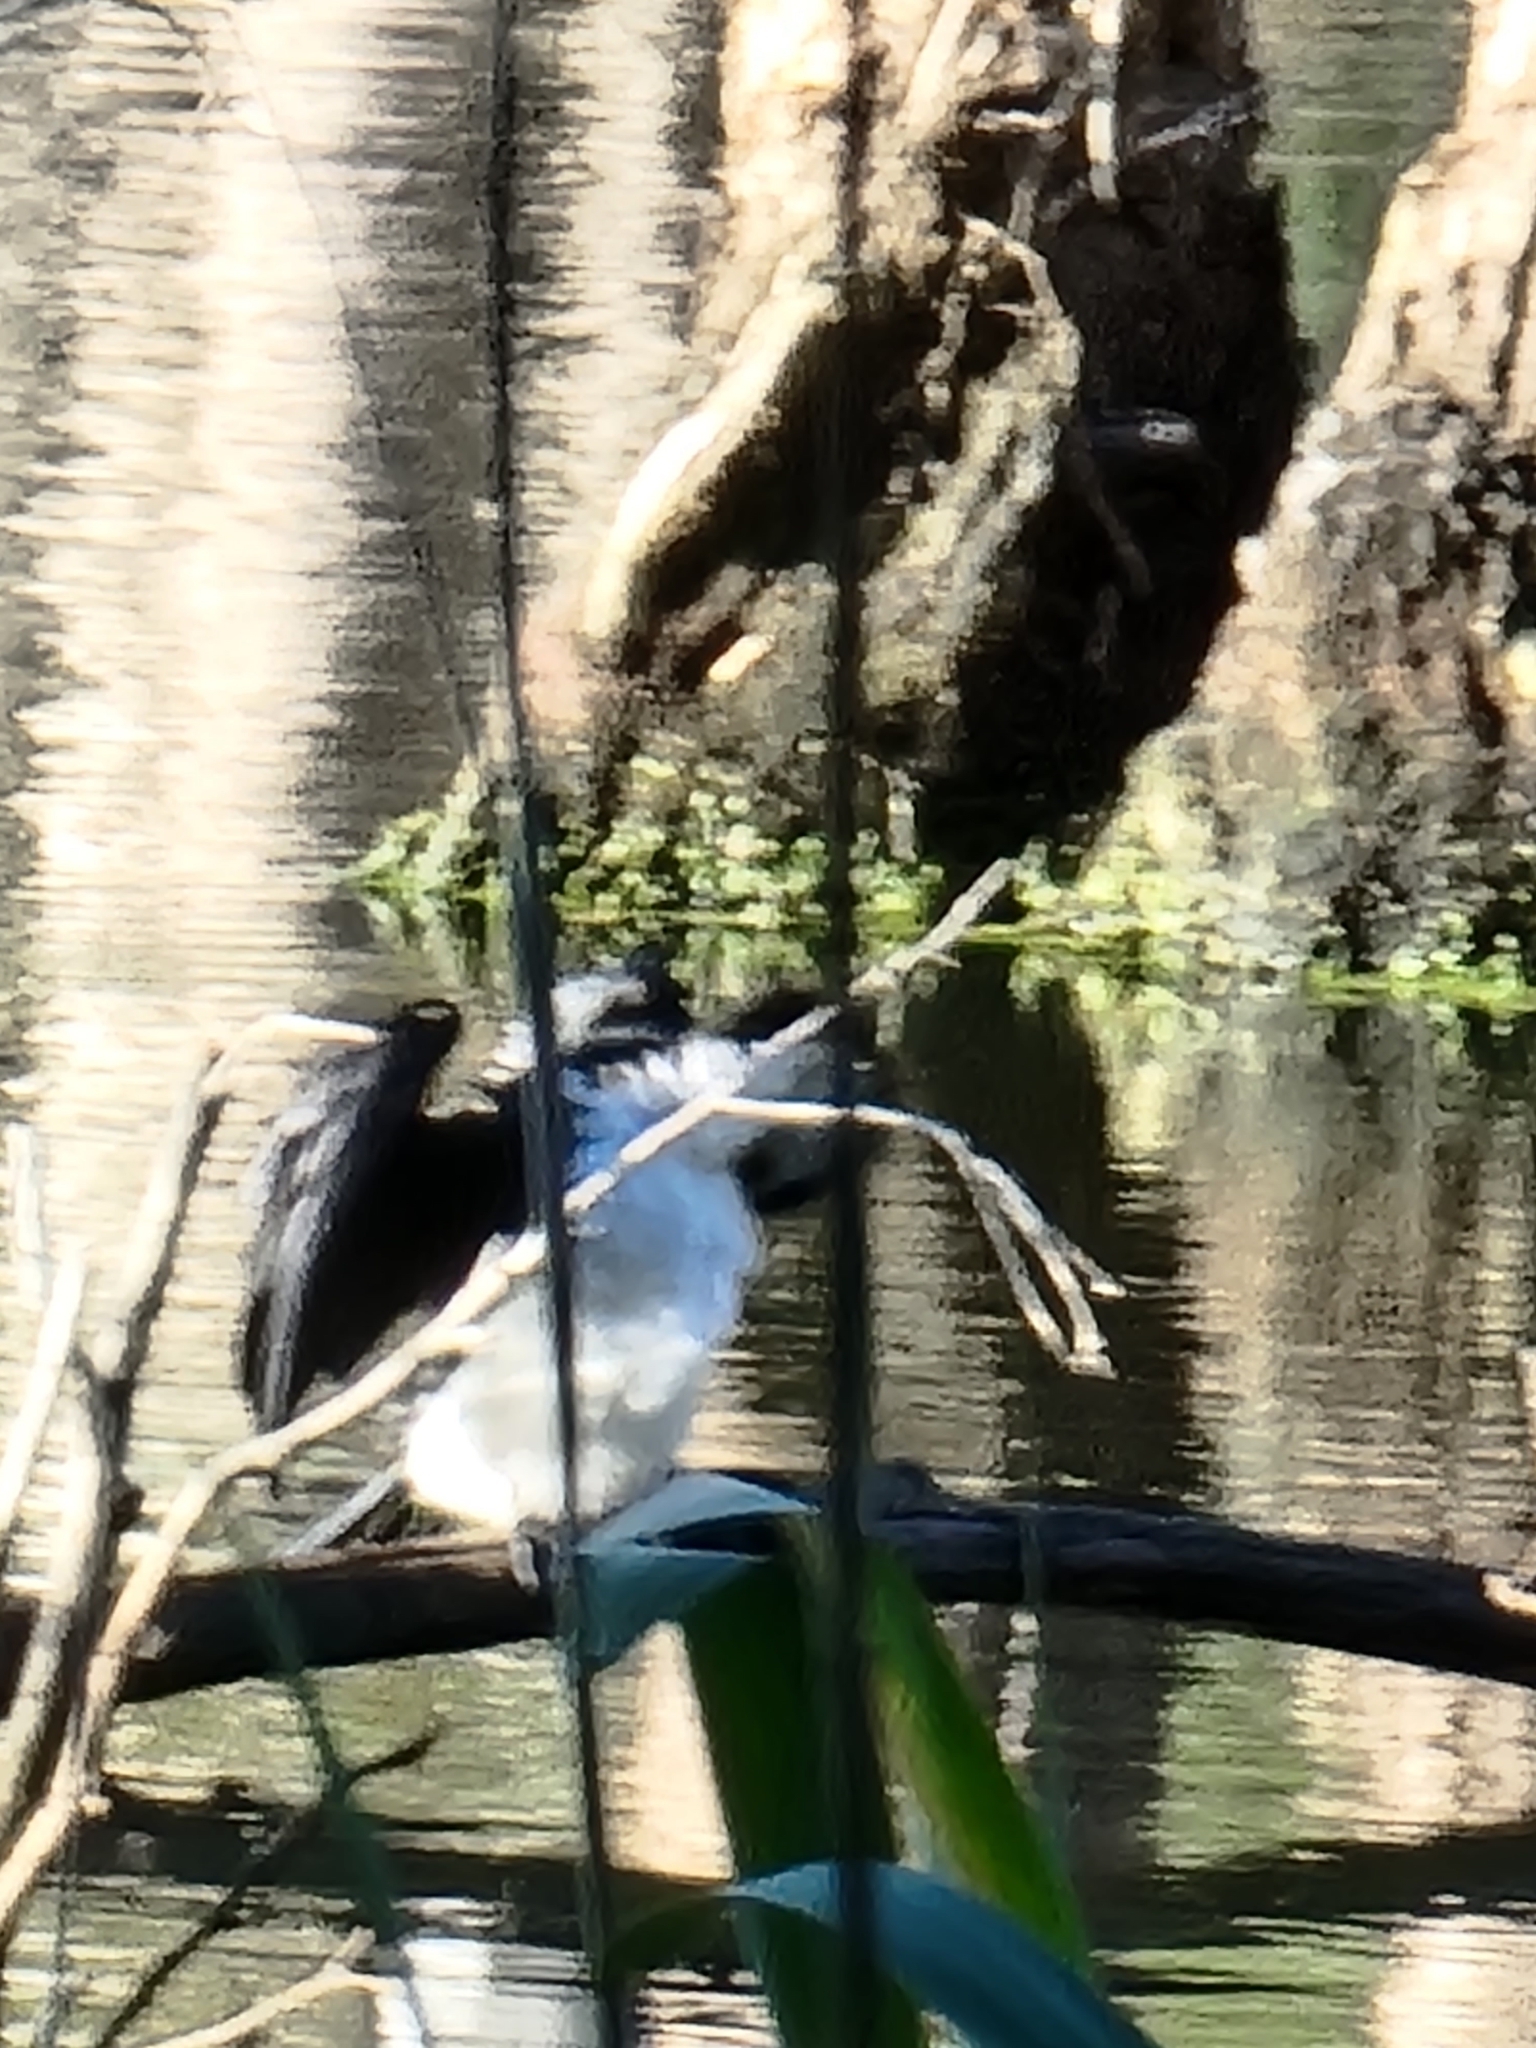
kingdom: Animalia
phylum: Chordata
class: Aves
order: Suliformes
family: Phalacrocoracidae
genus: Microcarbo
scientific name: Microcarbo melanoleucos
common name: Little pied cormorant
